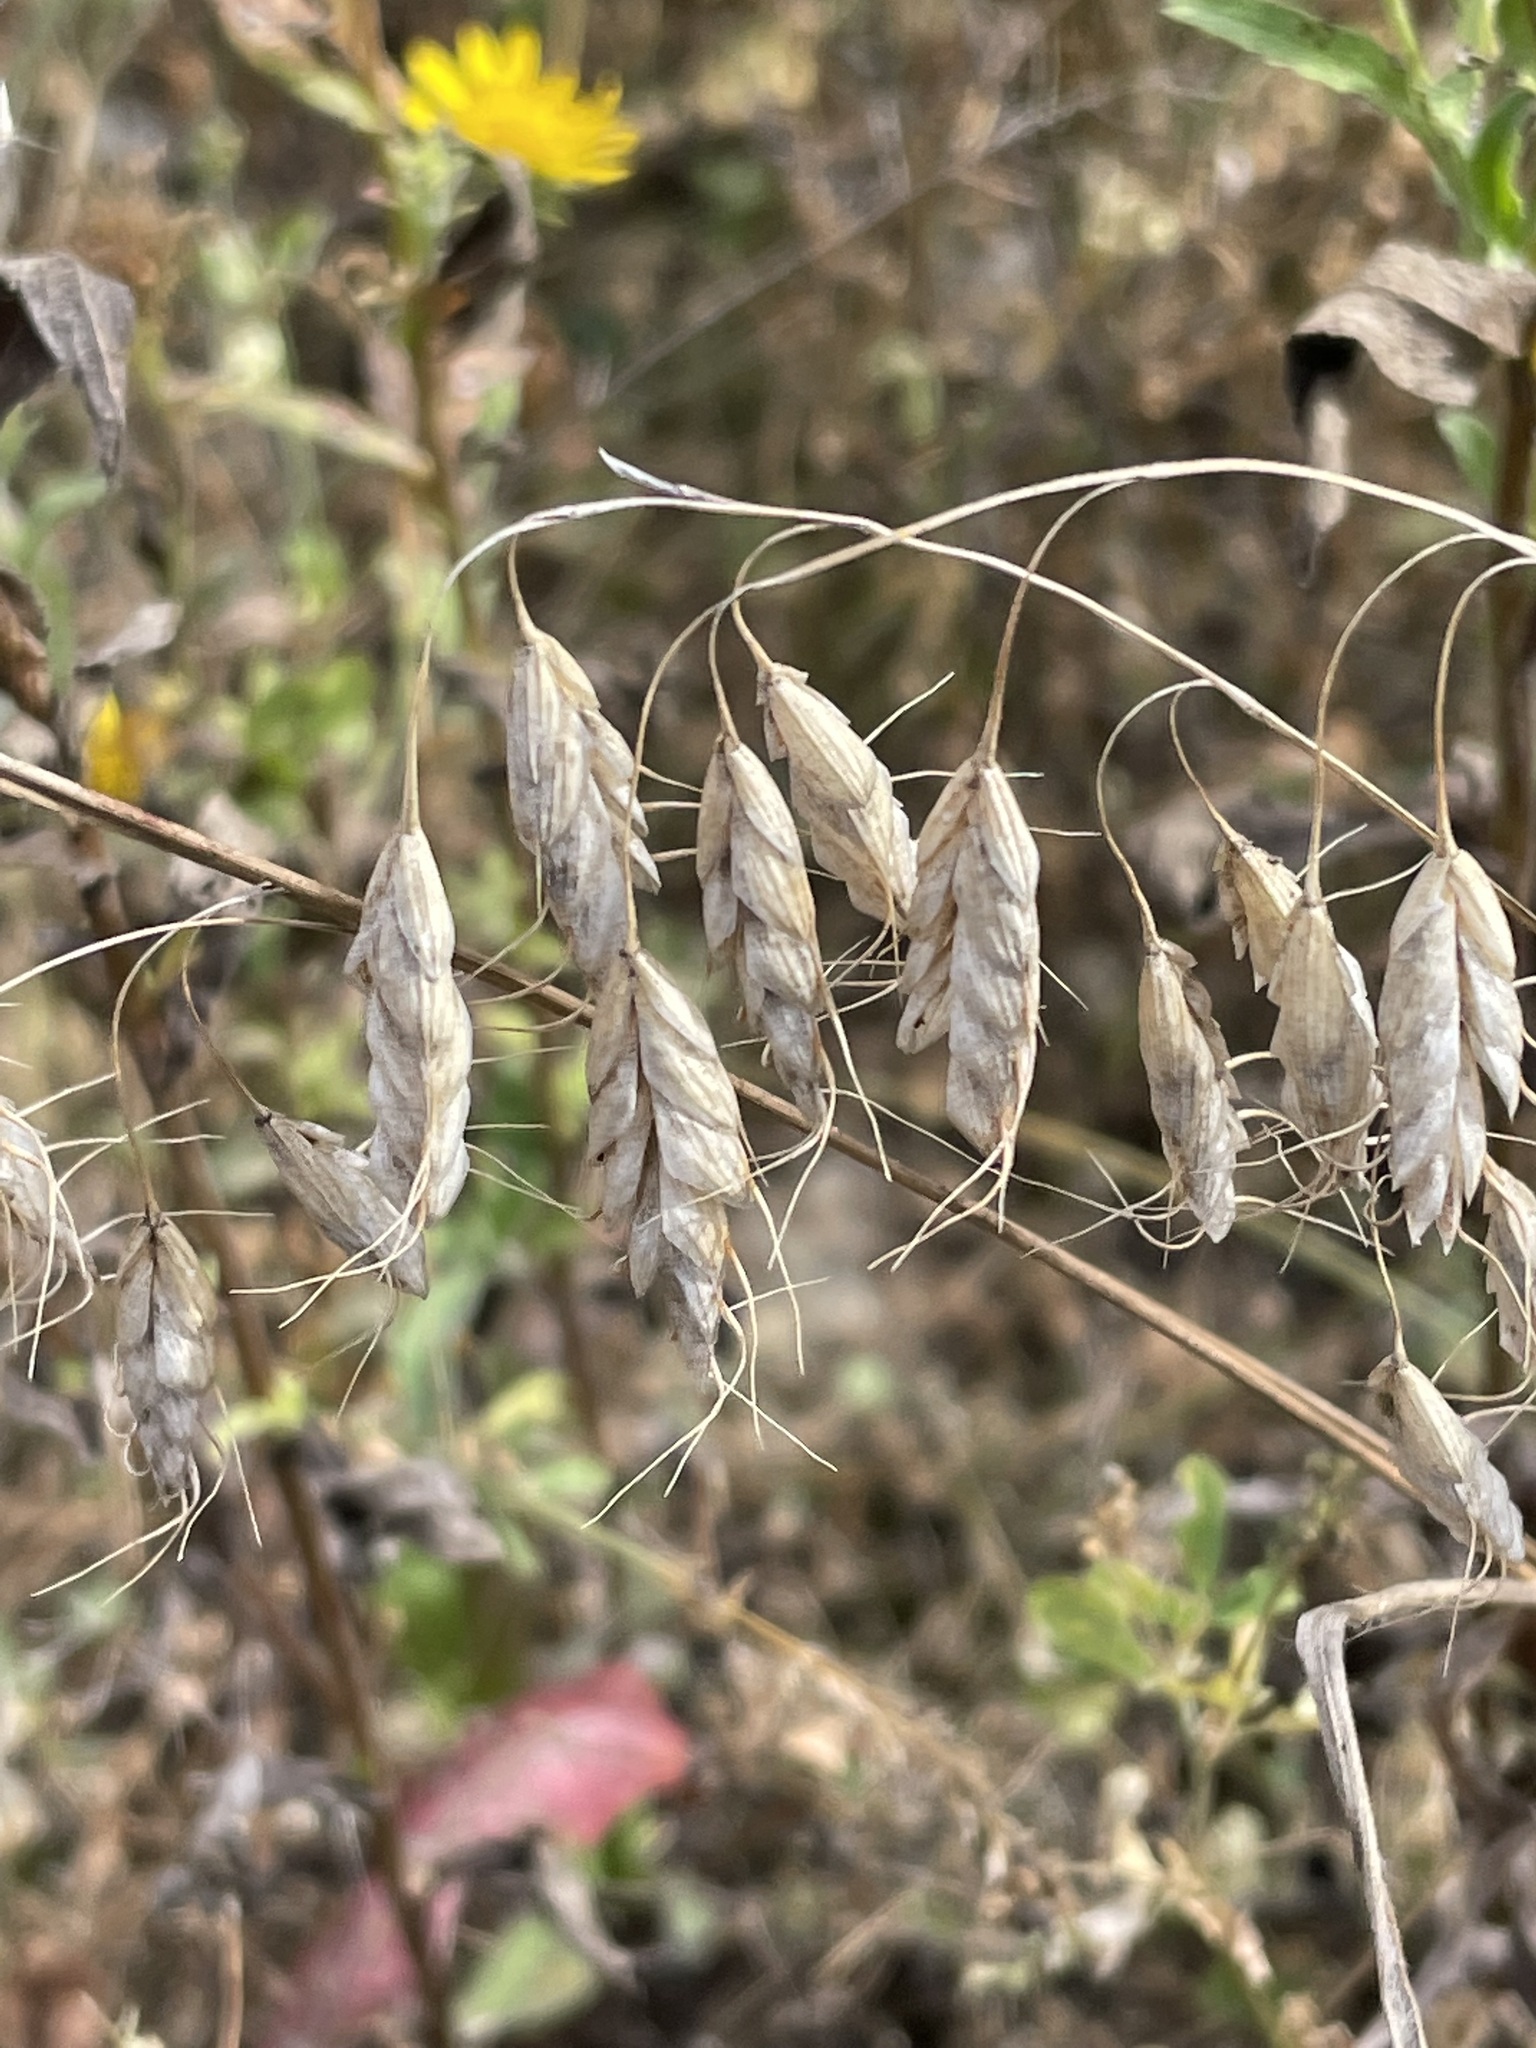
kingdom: Plantae
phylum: Tracheophyta
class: Liliopsida
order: Poales
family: Poaceae
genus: Bromus
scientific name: Bromus squarrosus
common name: Corn brome
